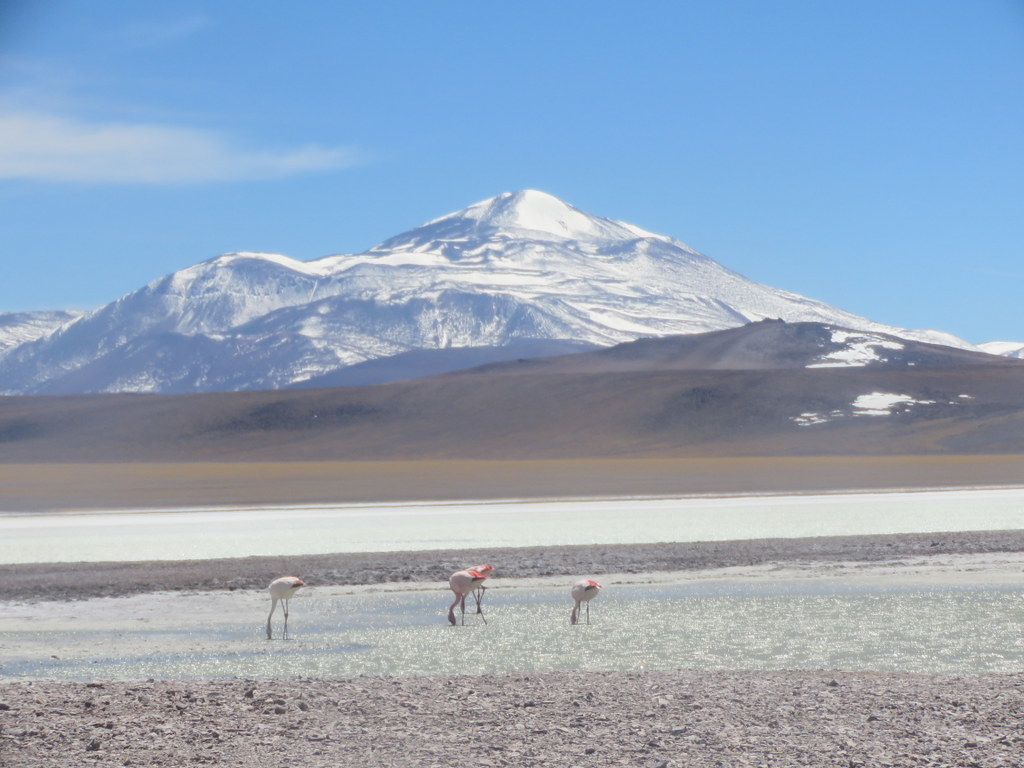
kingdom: Animalia
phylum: Chordata
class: Aves
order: Phoenicopteriformes
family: Phoenicopteridae
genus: Phoenicoparrus
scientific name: Phoenicoparrus jamesi
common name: James's flamingo
